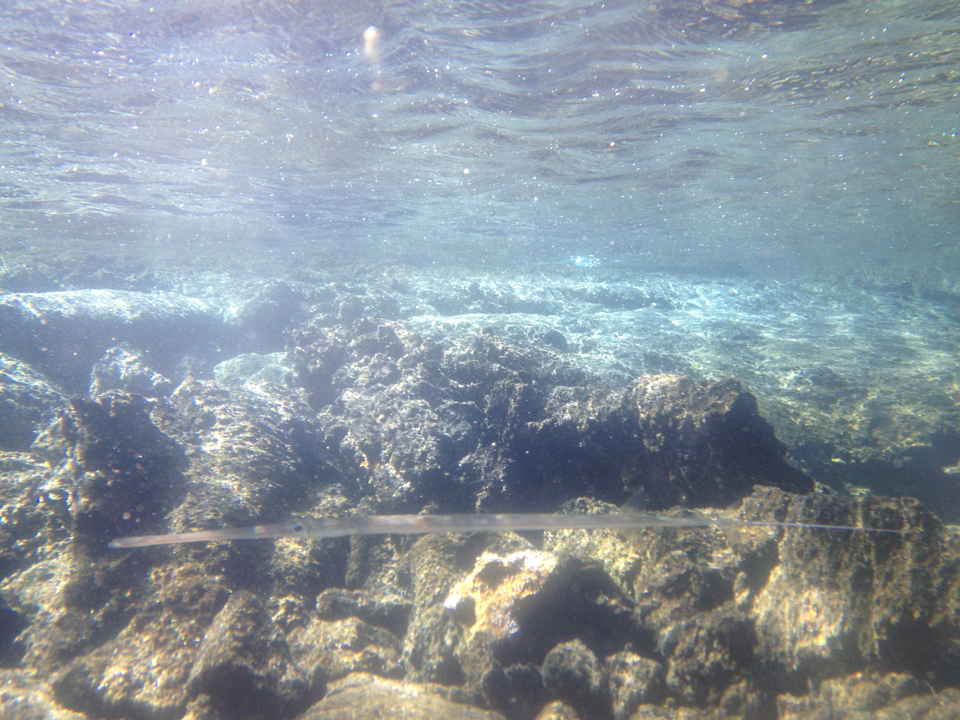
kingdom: Animalia
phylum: Chordata
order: Syngnathiformes
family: Fistulariidae
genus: Fistularia
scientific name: Fistularia commersonii
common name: Bluespotted cornetfish
